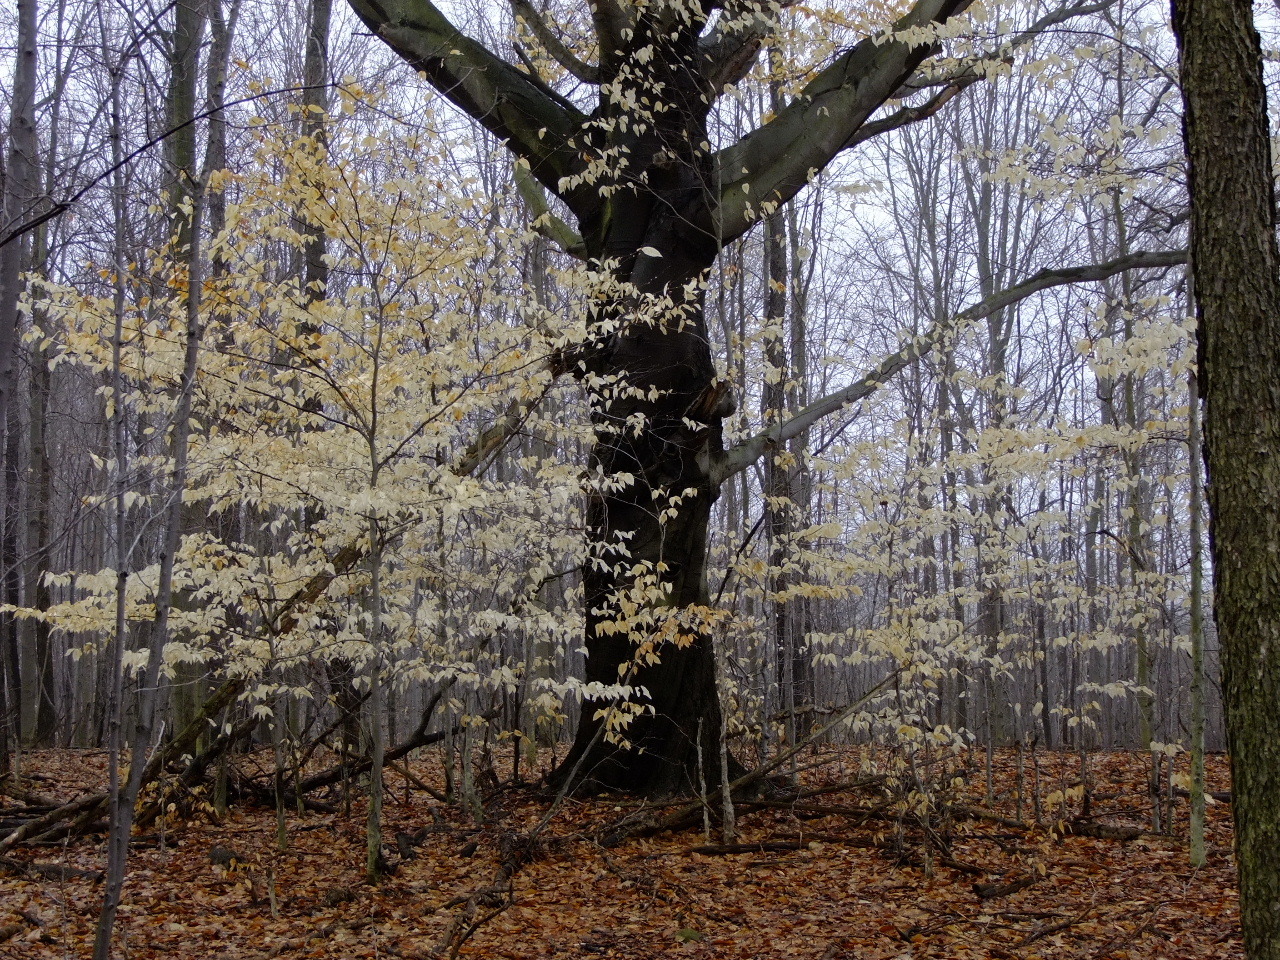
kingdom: Plantae
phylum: Tracheophyta
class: Magnoliopsida
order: Fagales
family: Fagaceae
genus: Fagus
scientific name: Fagus grandifolia
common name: American beech
